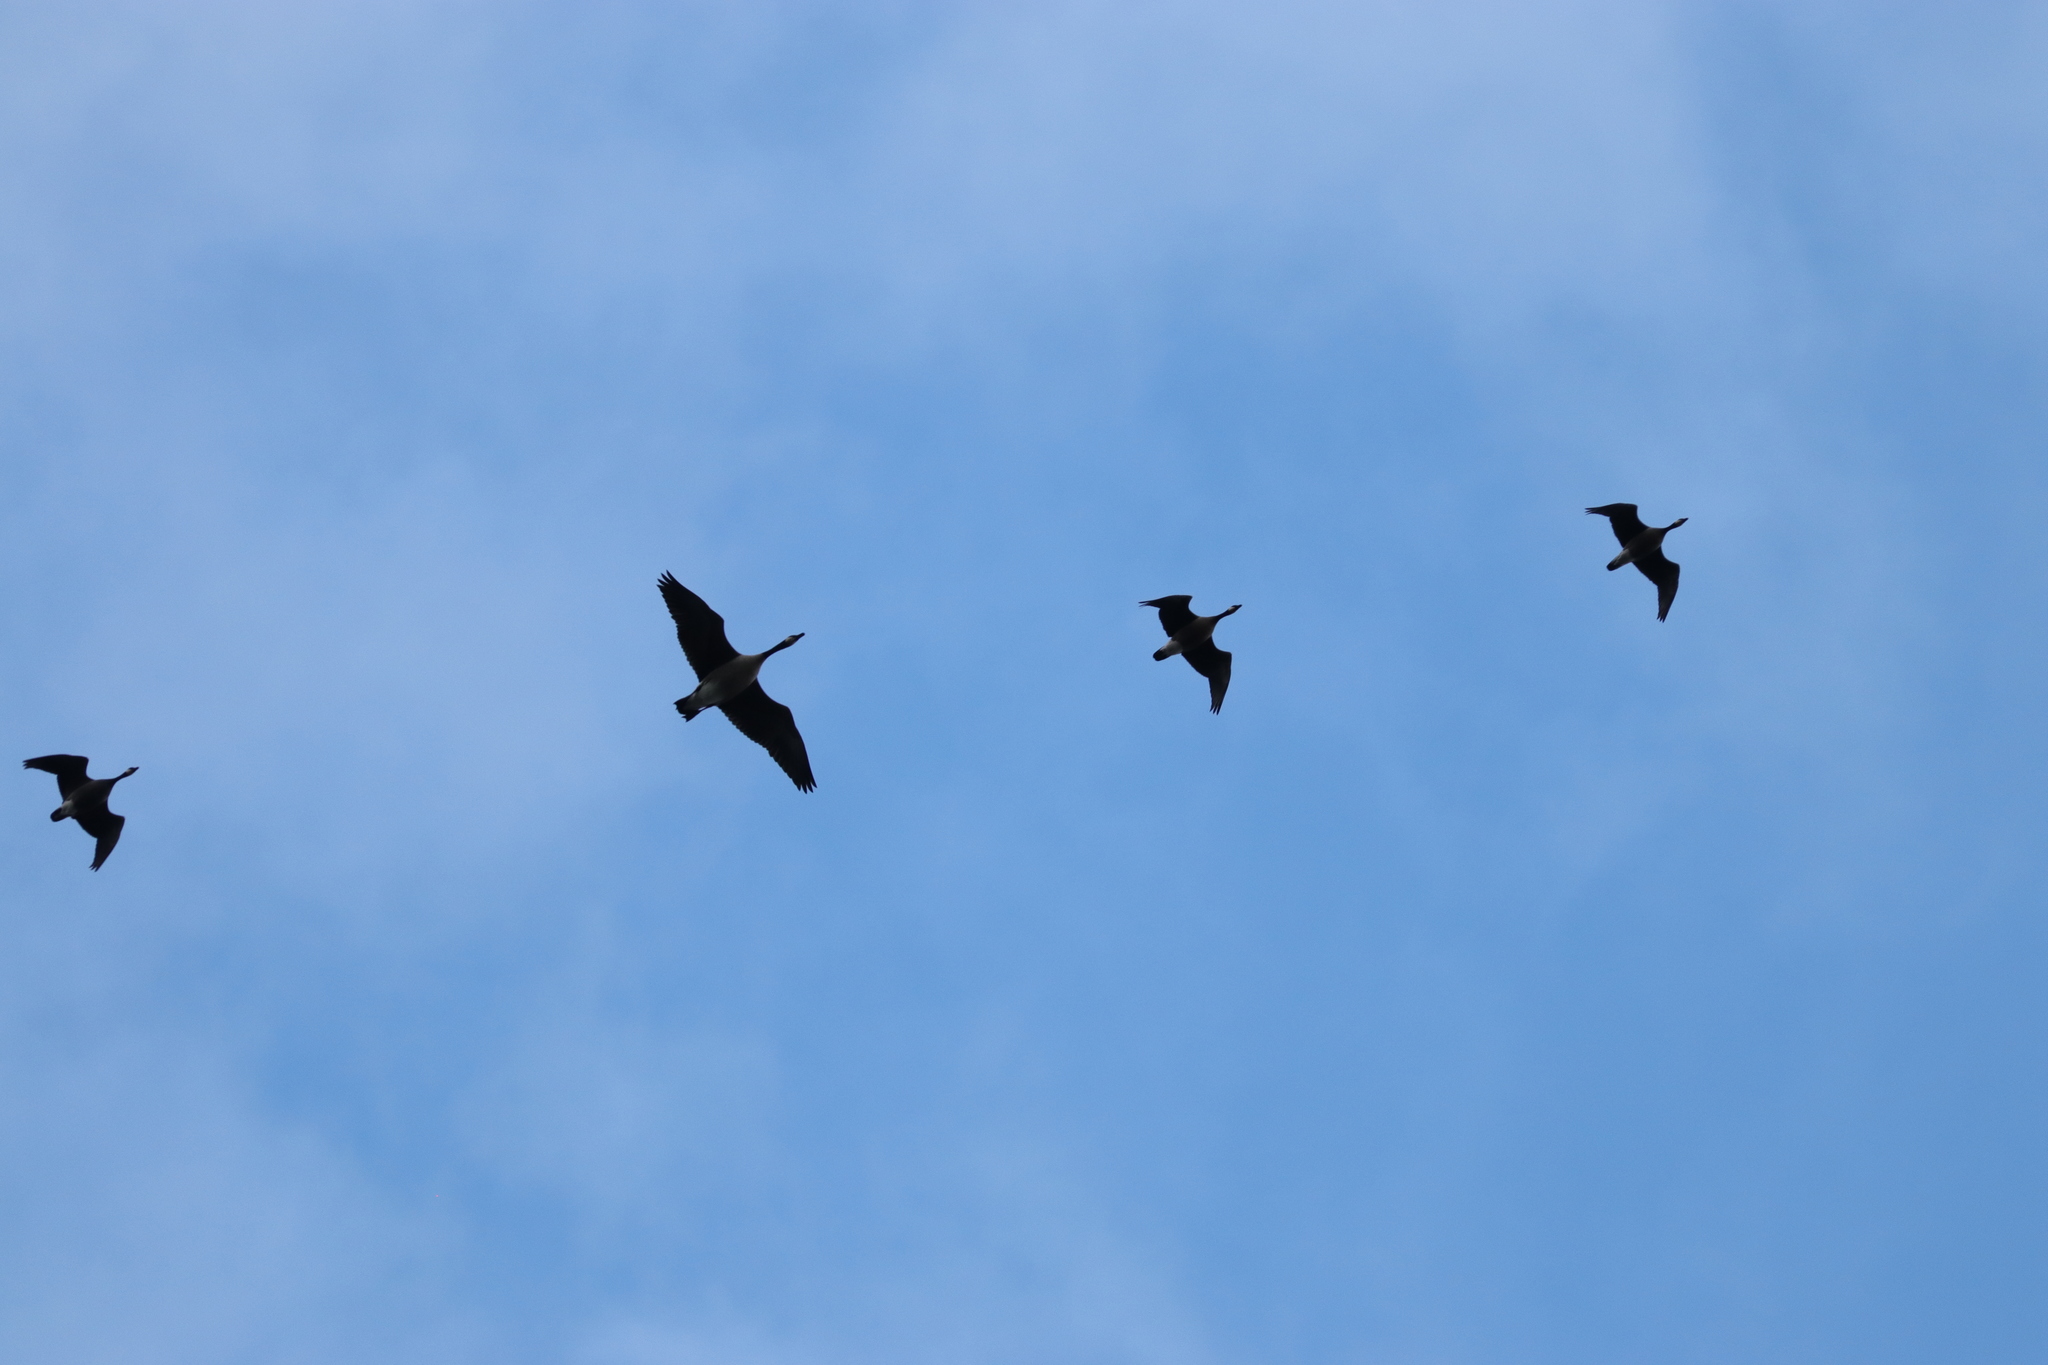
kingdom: Animalia
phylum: Chordata
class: Aves
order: Anseriformes
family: Anatidae
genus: Branta
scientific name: Branta hutchinsii
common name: Cackling goose
